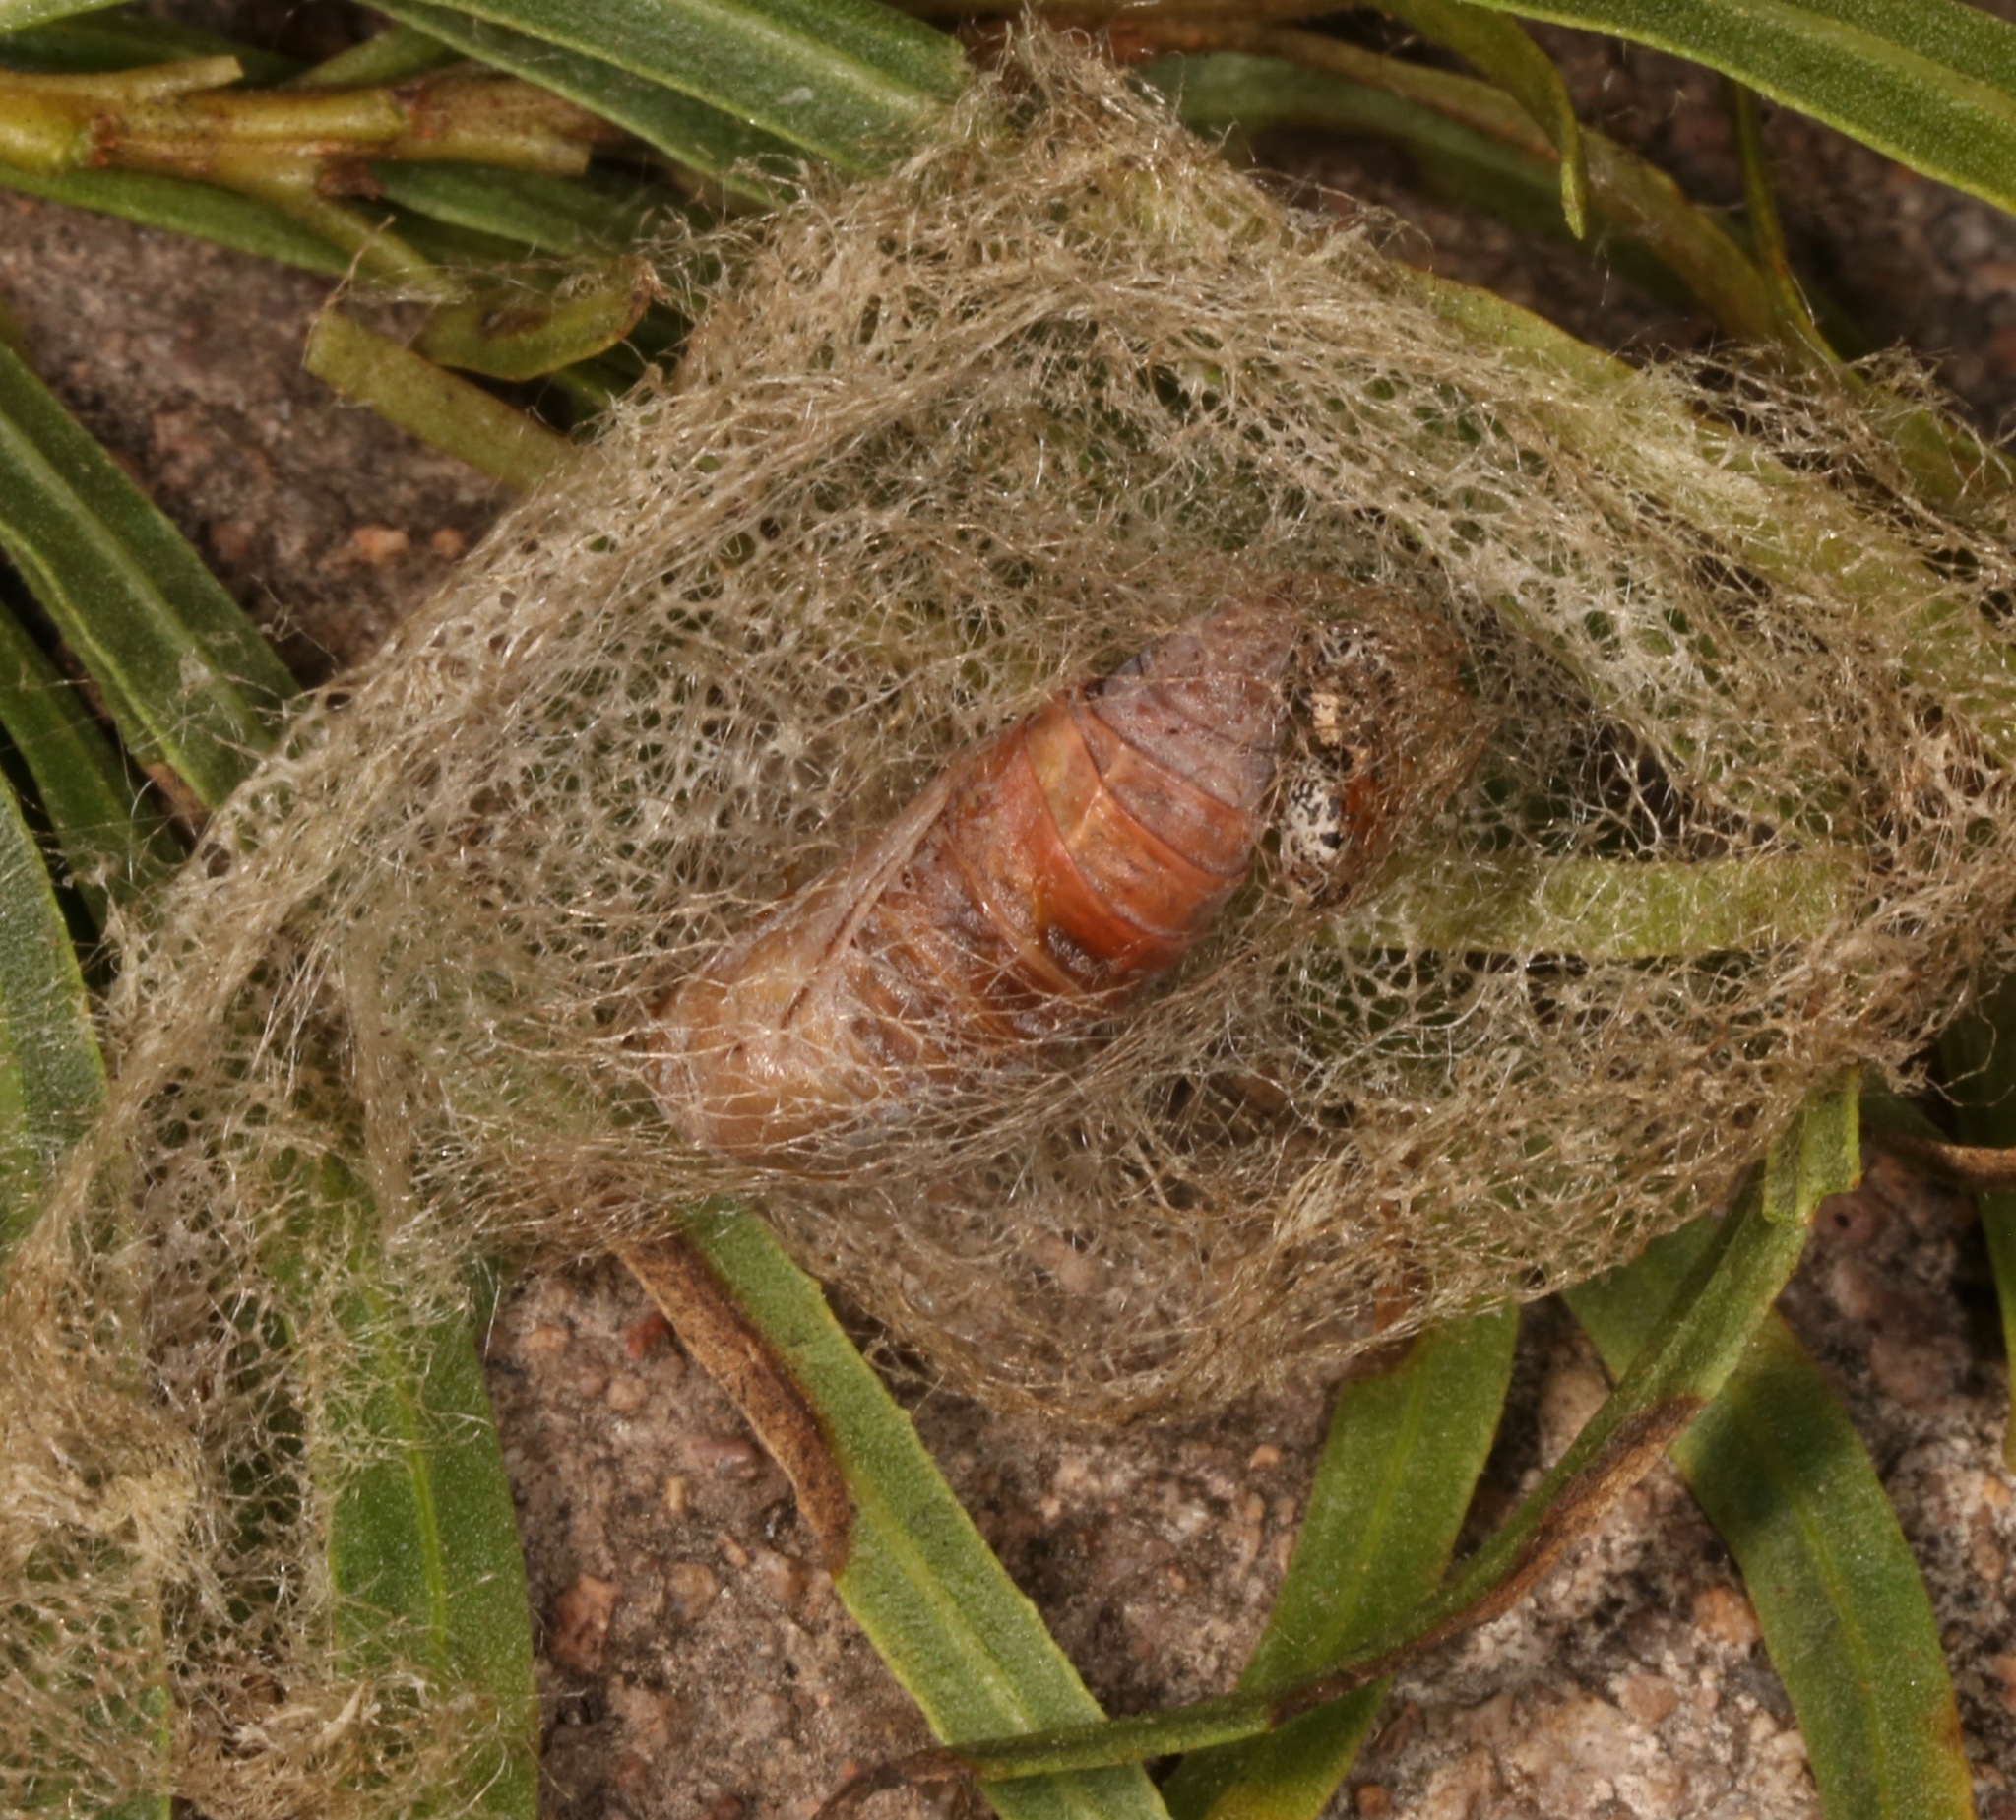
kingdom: Animalia
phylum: Arthropoda
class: Insecta
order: Lepidoptera
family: Geometridae
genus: Eucaterva
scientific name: Eucaterva variaria
